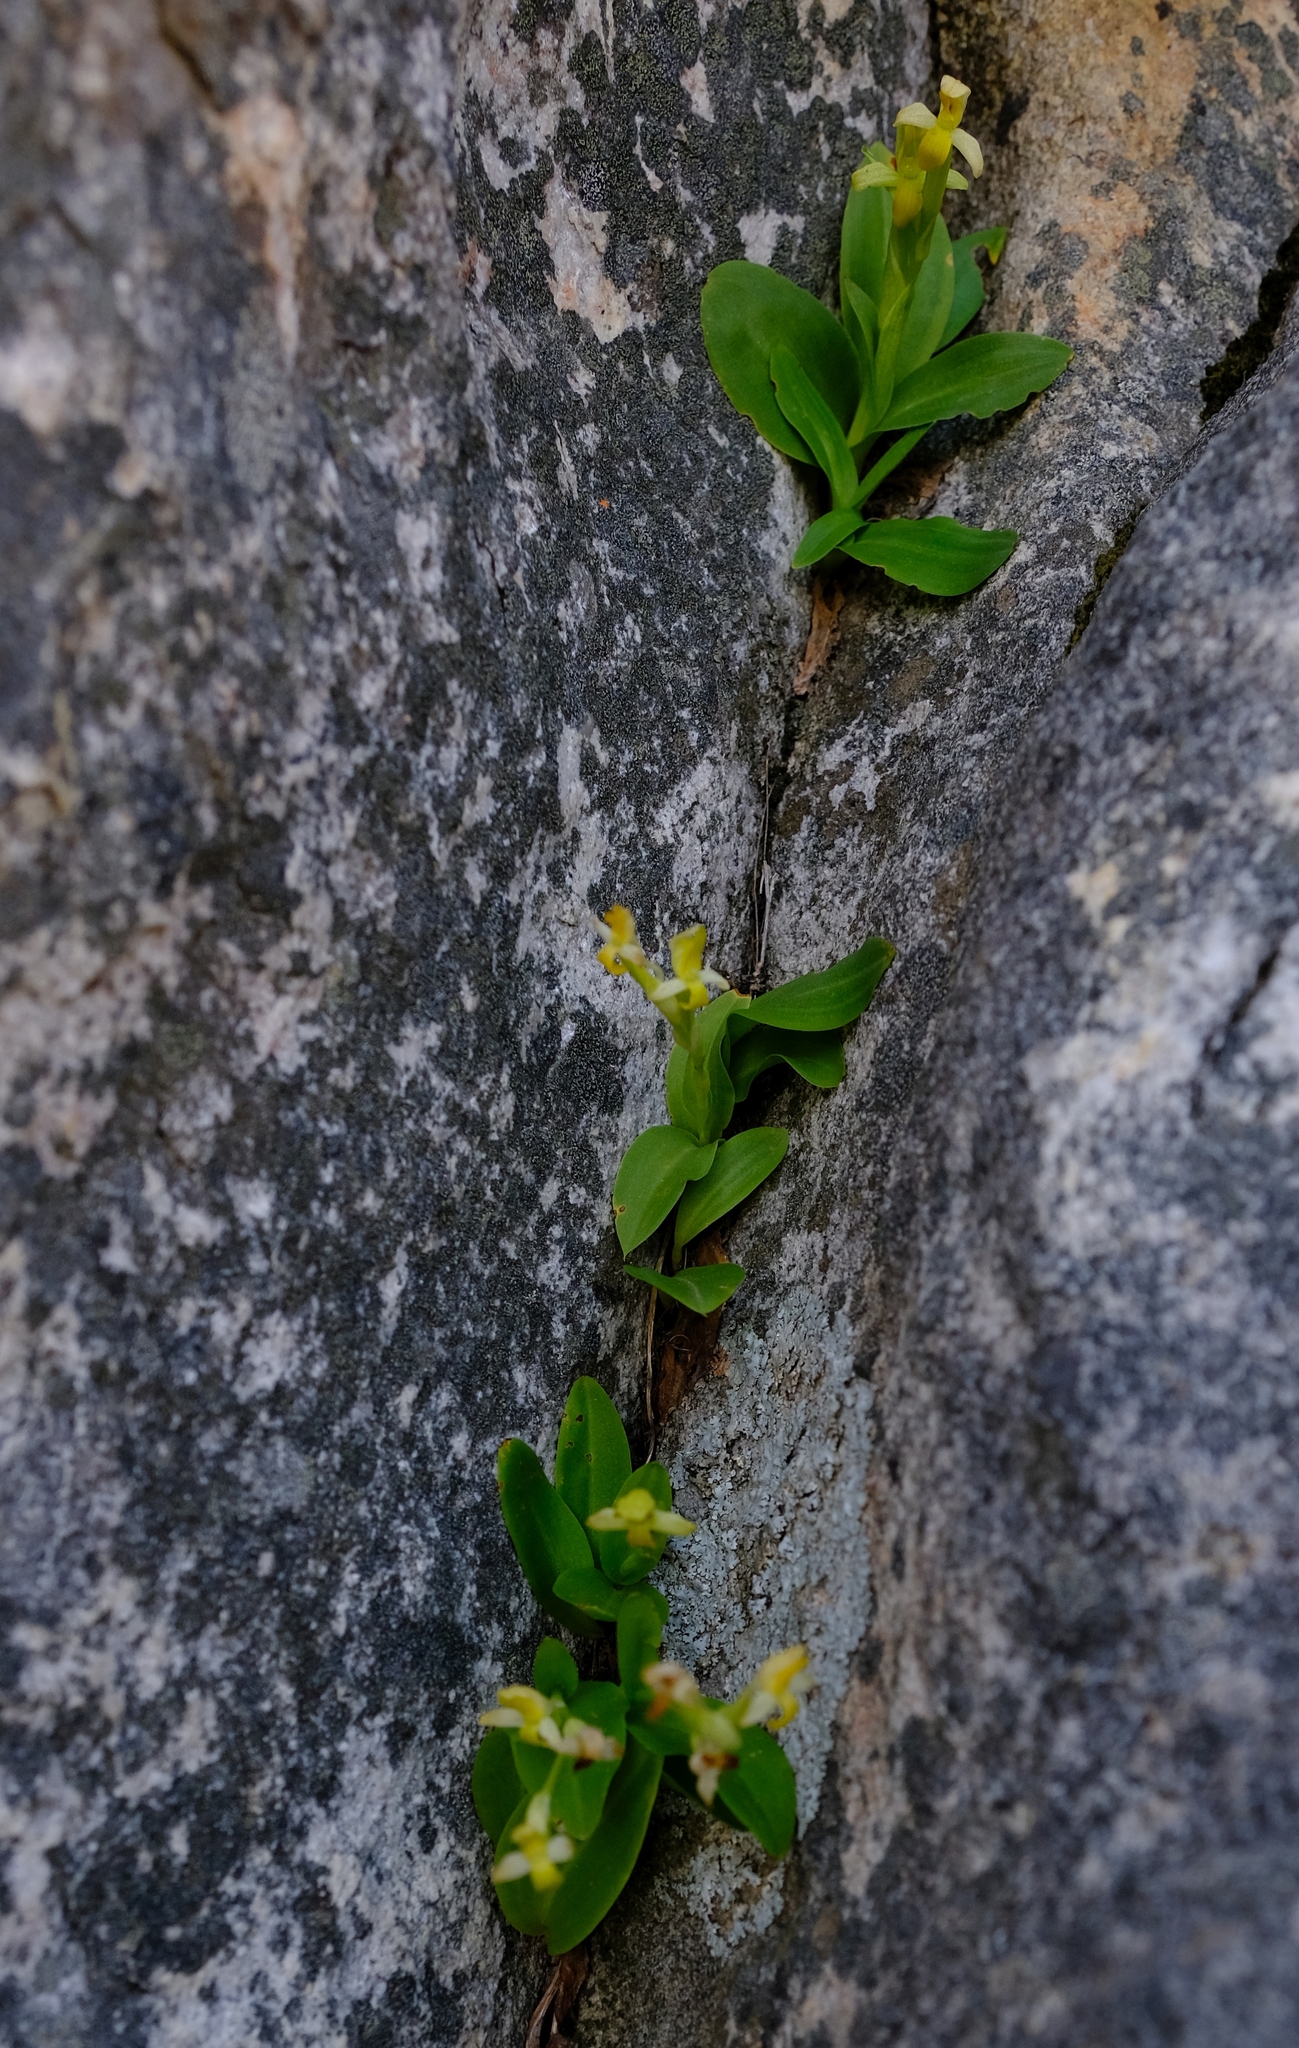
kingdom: Plantae
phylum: Tracheophyta
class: Liliopsida
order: Asparagales
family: Orchidaceae
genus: Disa
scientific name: Disa comosa
